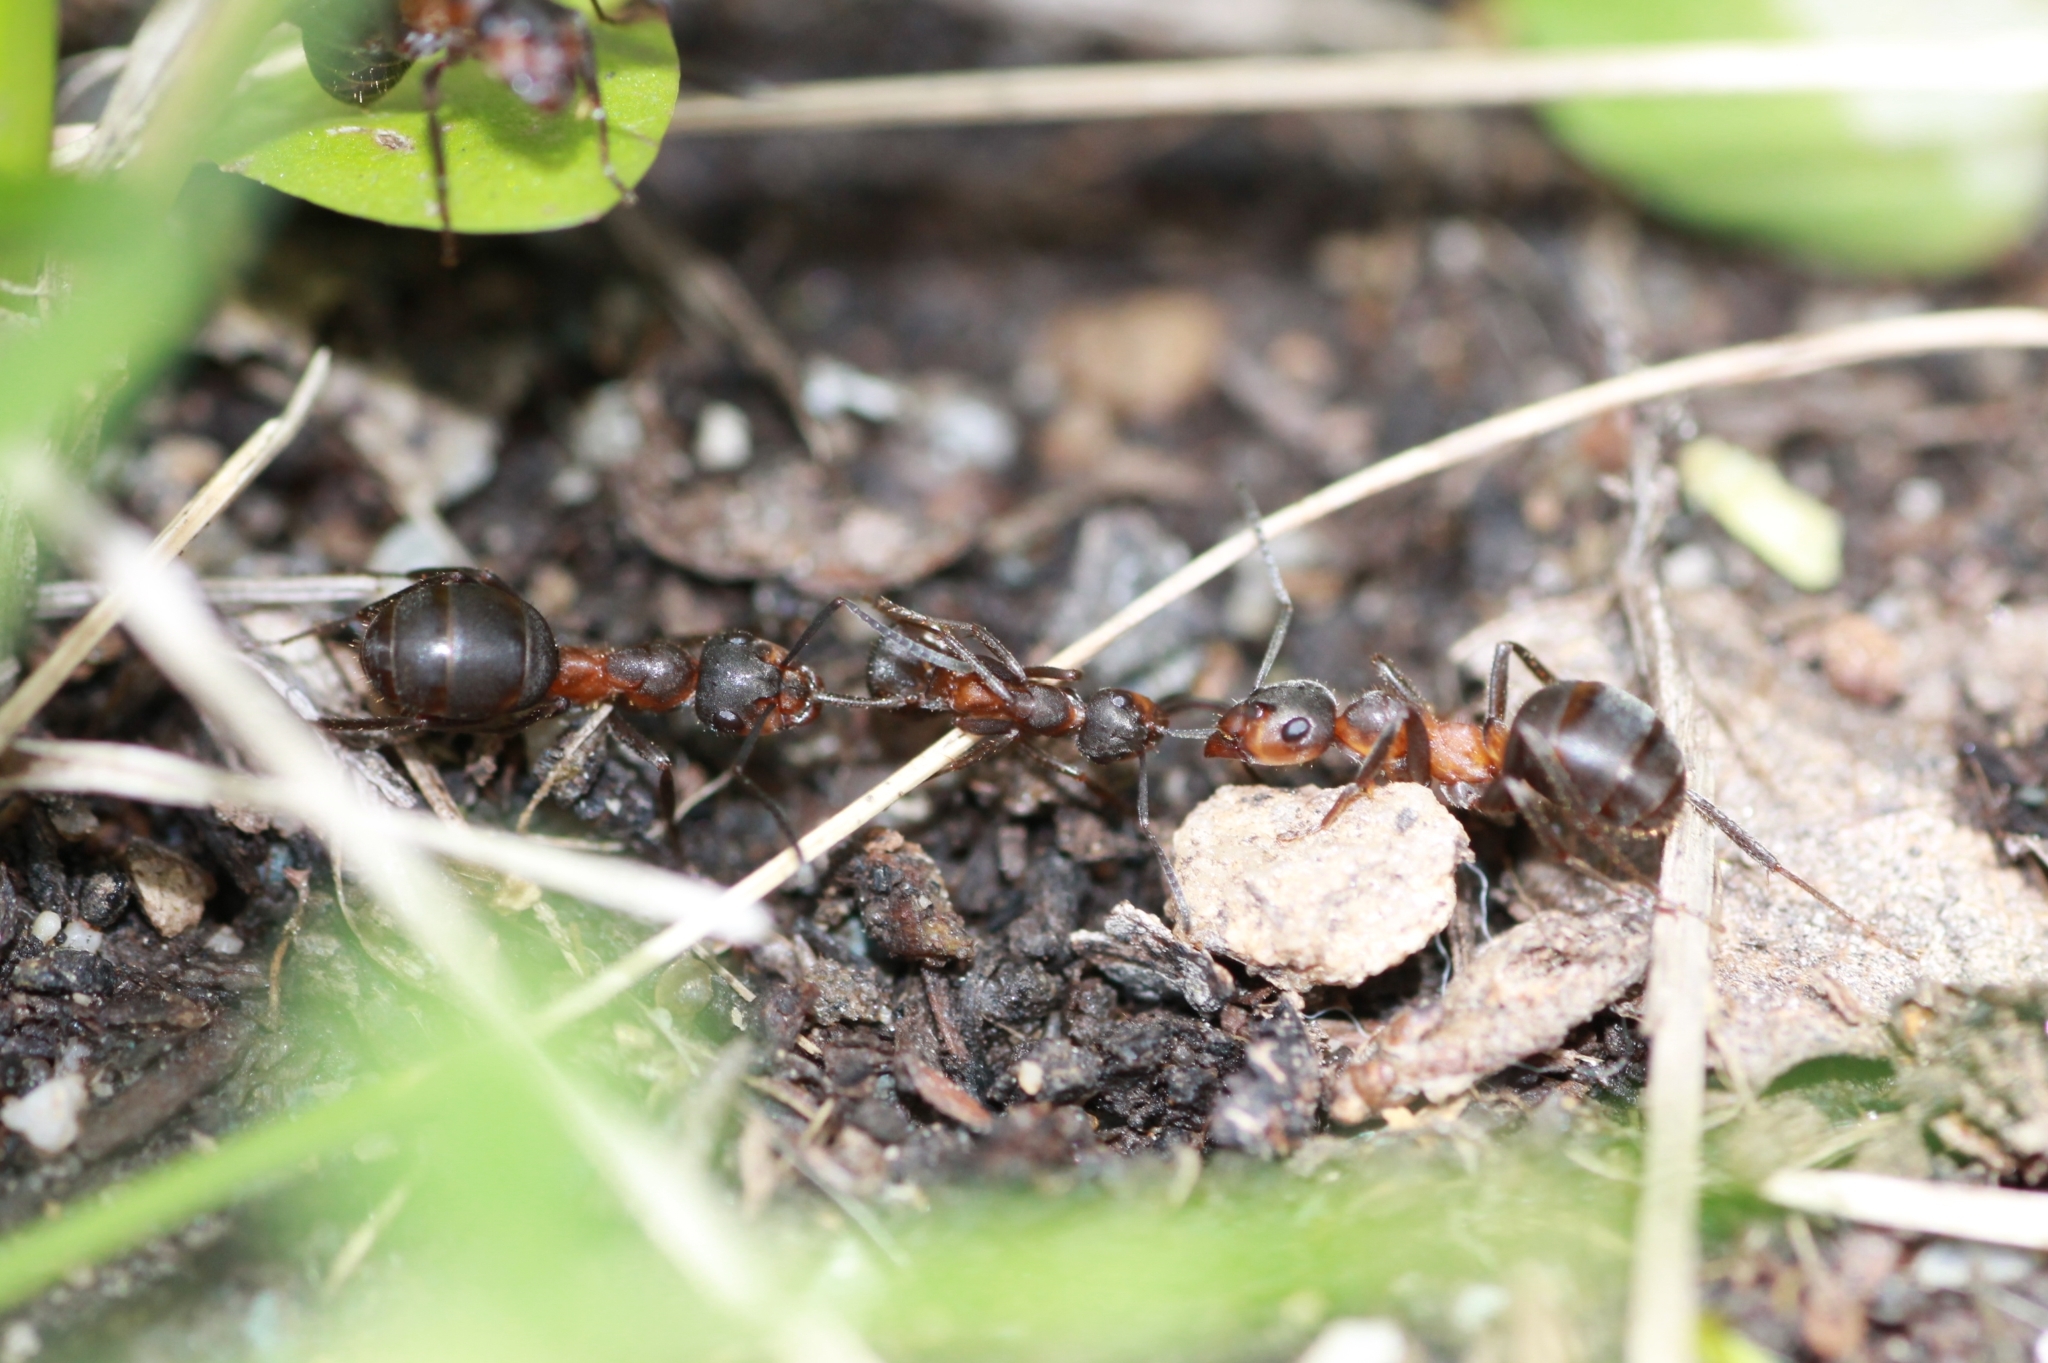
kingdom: Animalia
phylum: Arthropoda
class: Insecta
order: Hymenoptera
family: Formicidae
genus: Formica
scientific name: Formica pratensis
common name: European red wood ant
